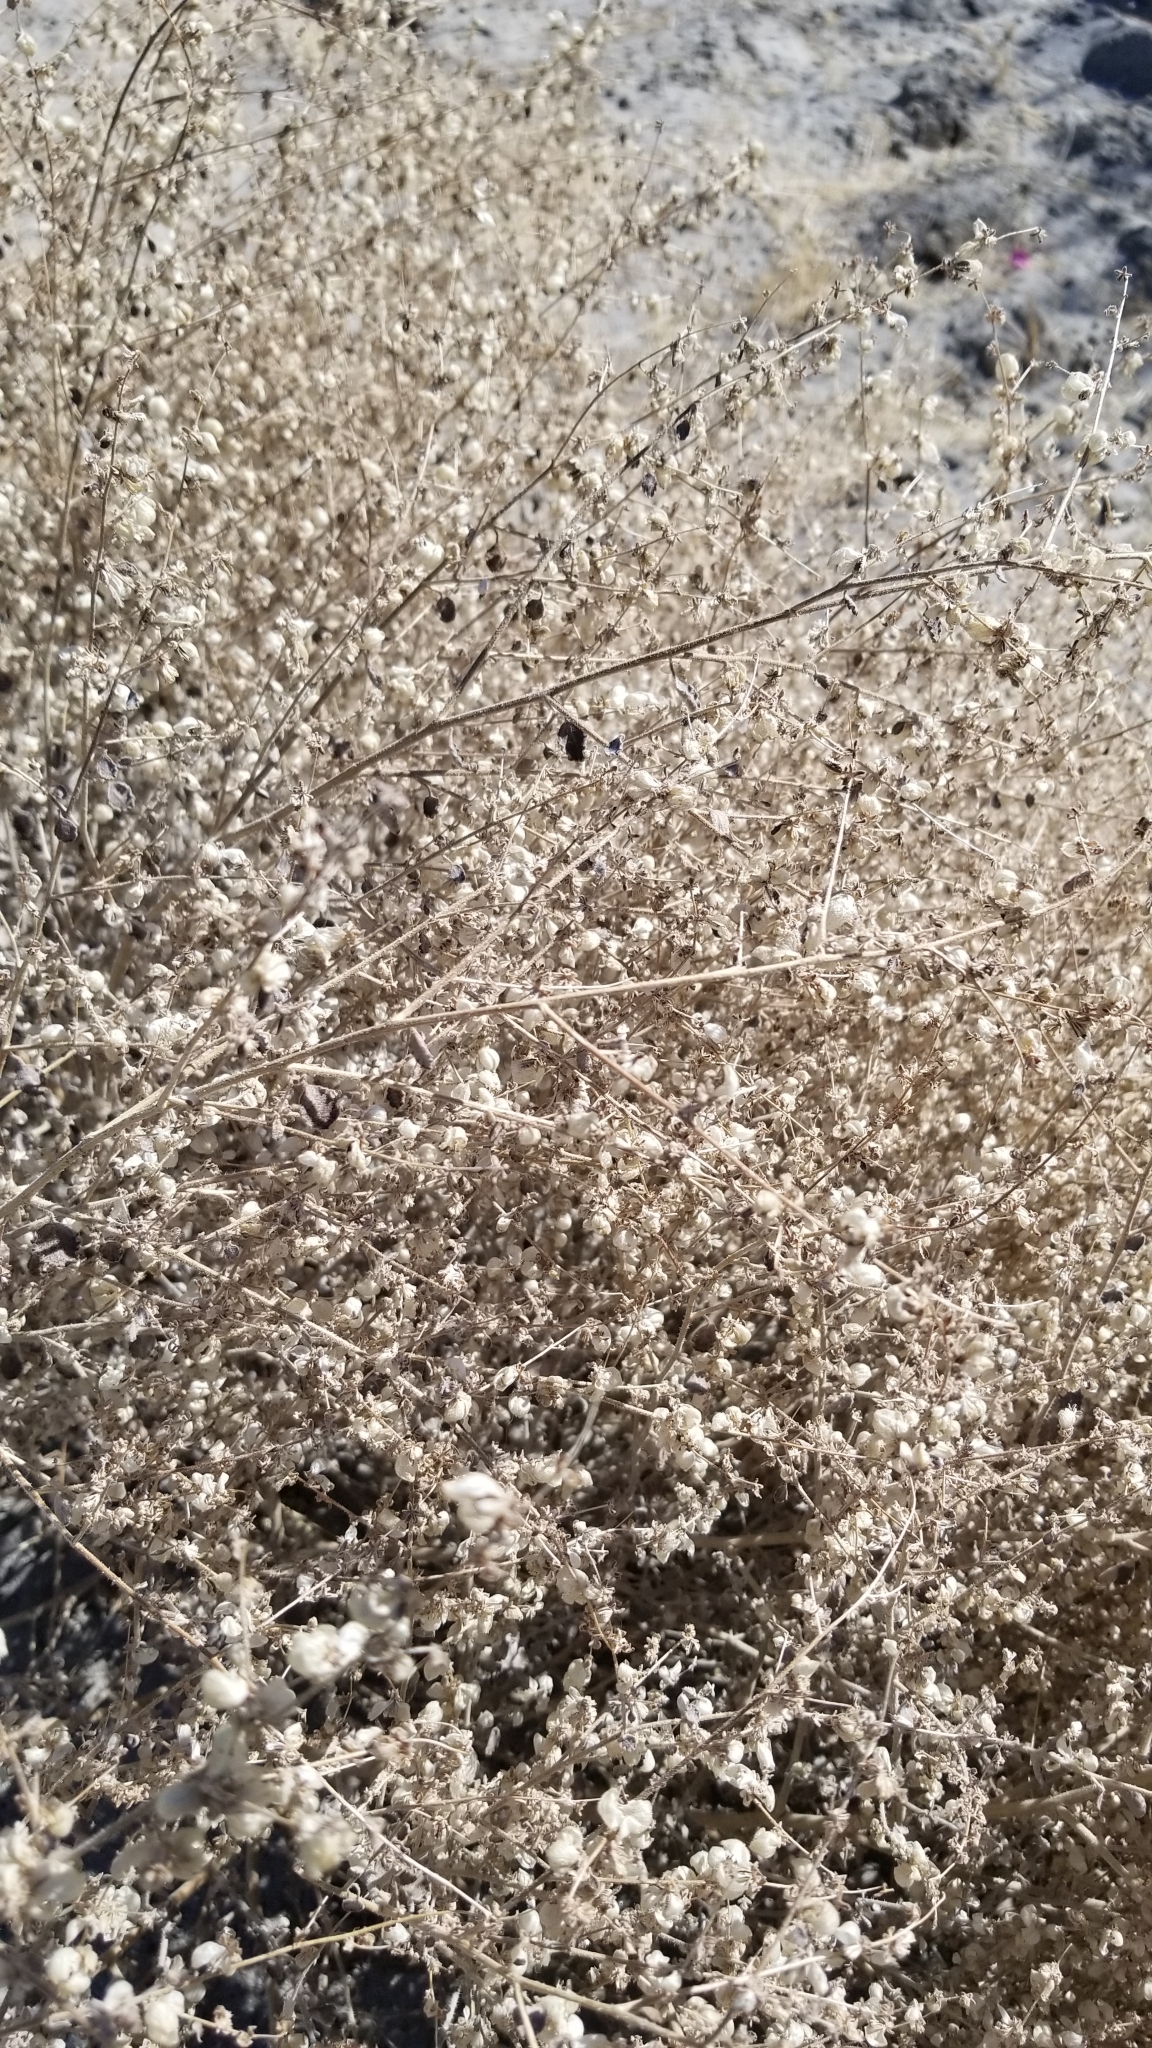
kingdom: Plantae
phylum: Tracheophyta
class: Magnoliopsida
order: Asterales
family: Asteraceae
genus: Dicoria
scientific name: Dicoria canescens
